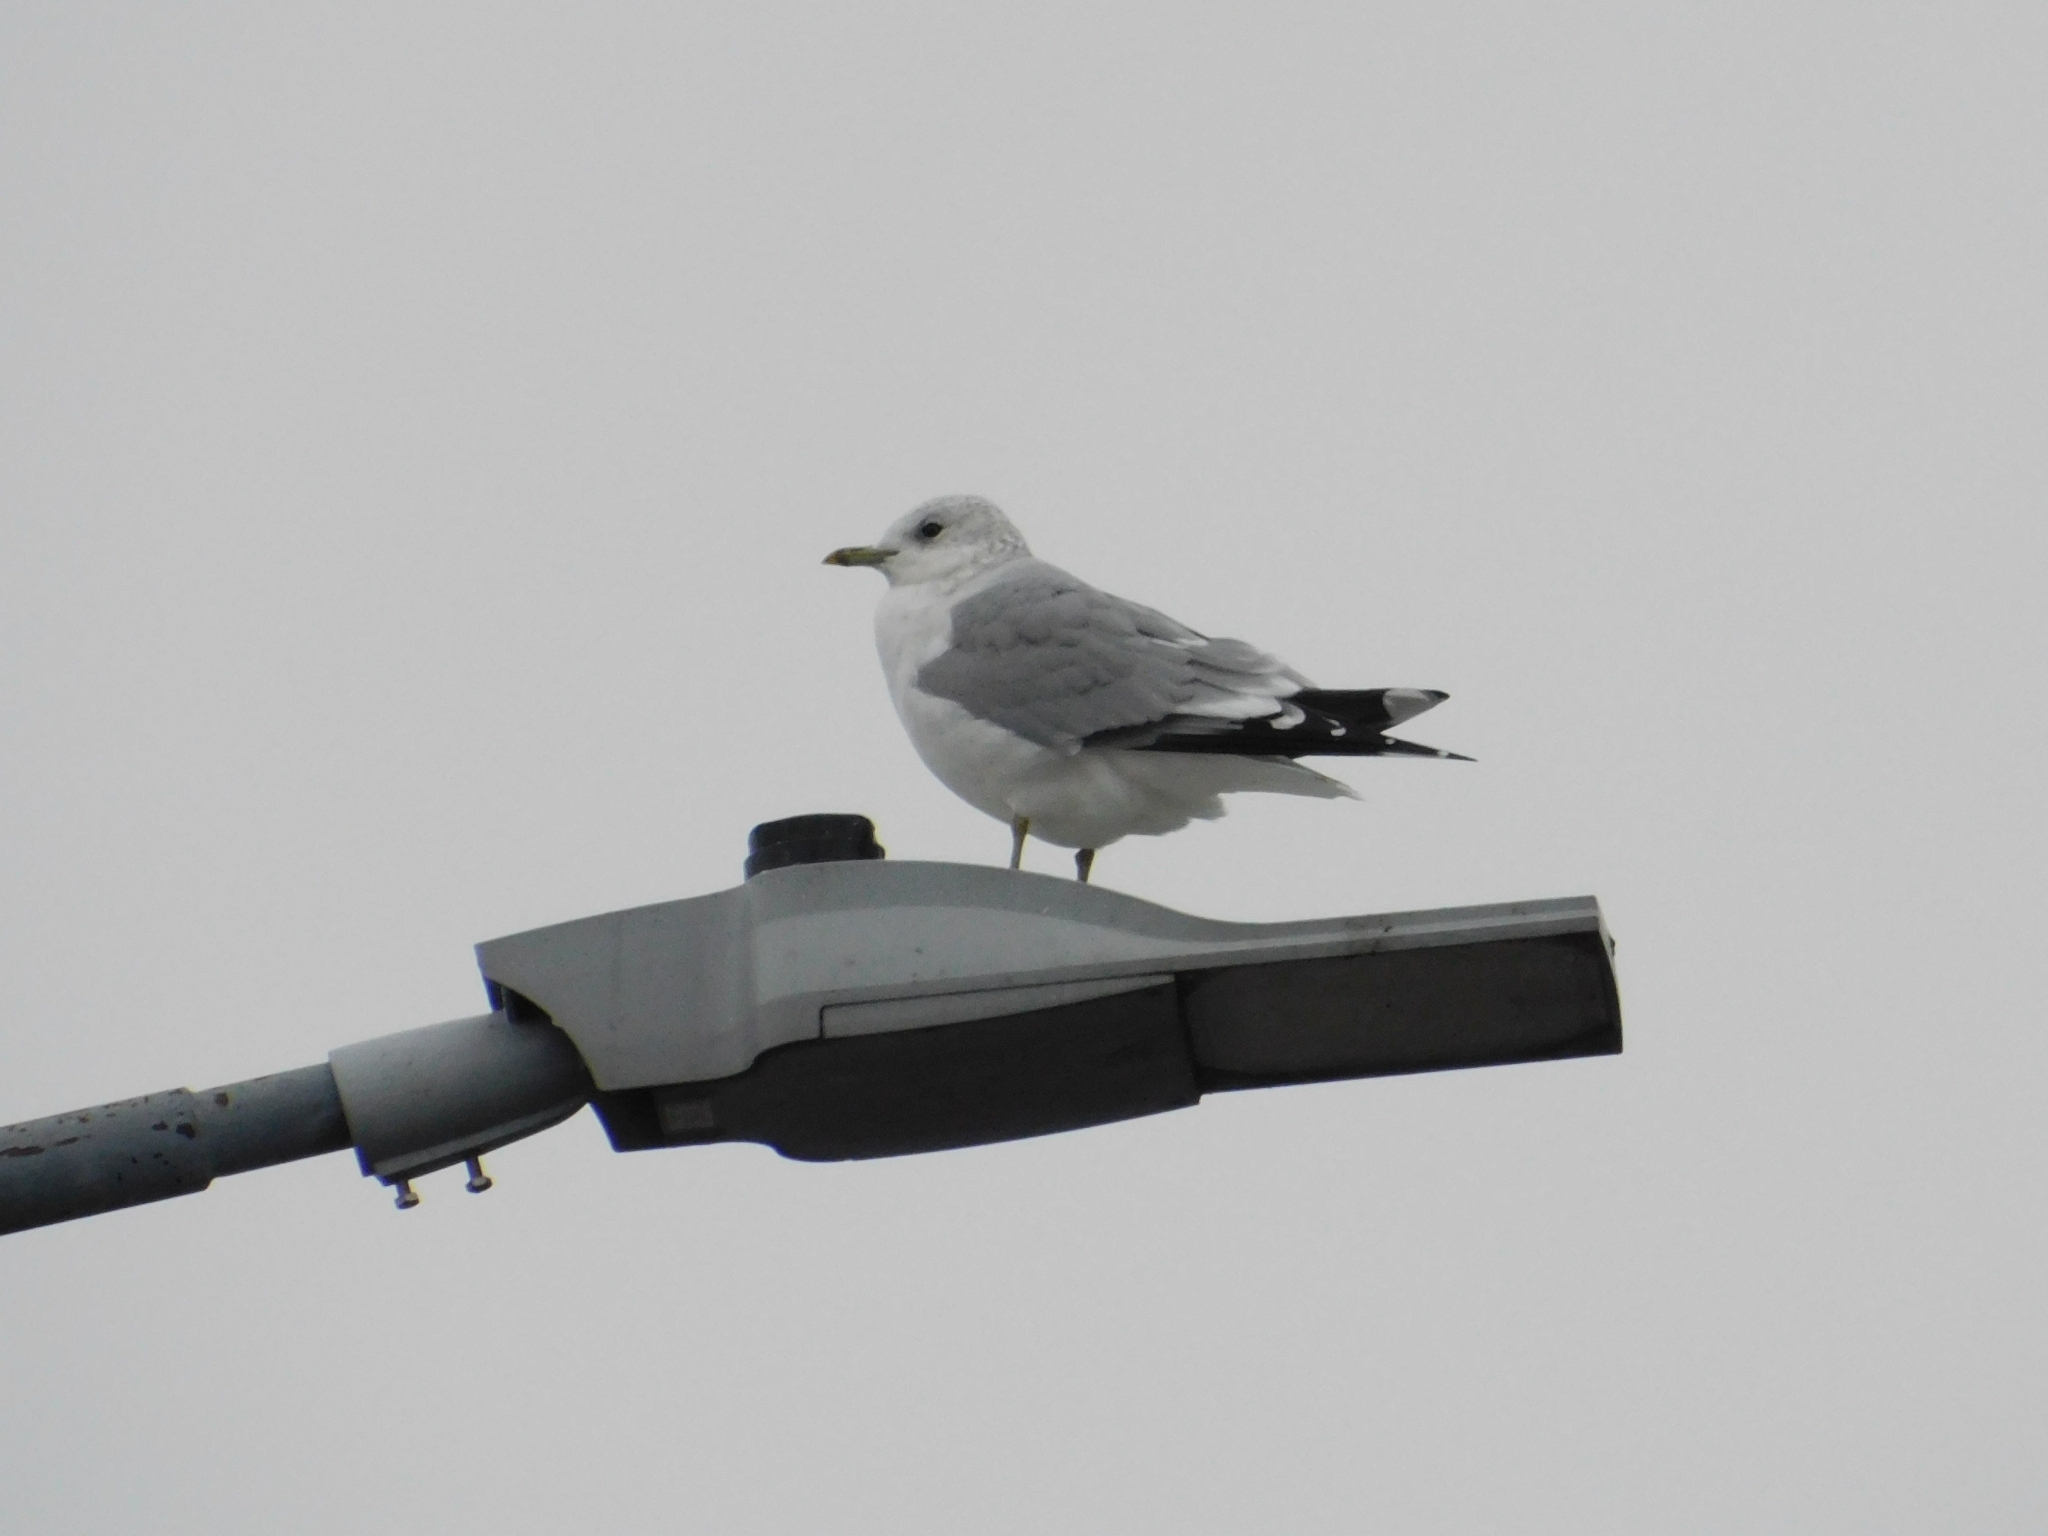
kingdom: Animalia
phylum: Chordata
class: Aves
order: Charadriiformes
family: Laridae
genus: Larus
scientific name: Larus canus
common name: Mew gull
